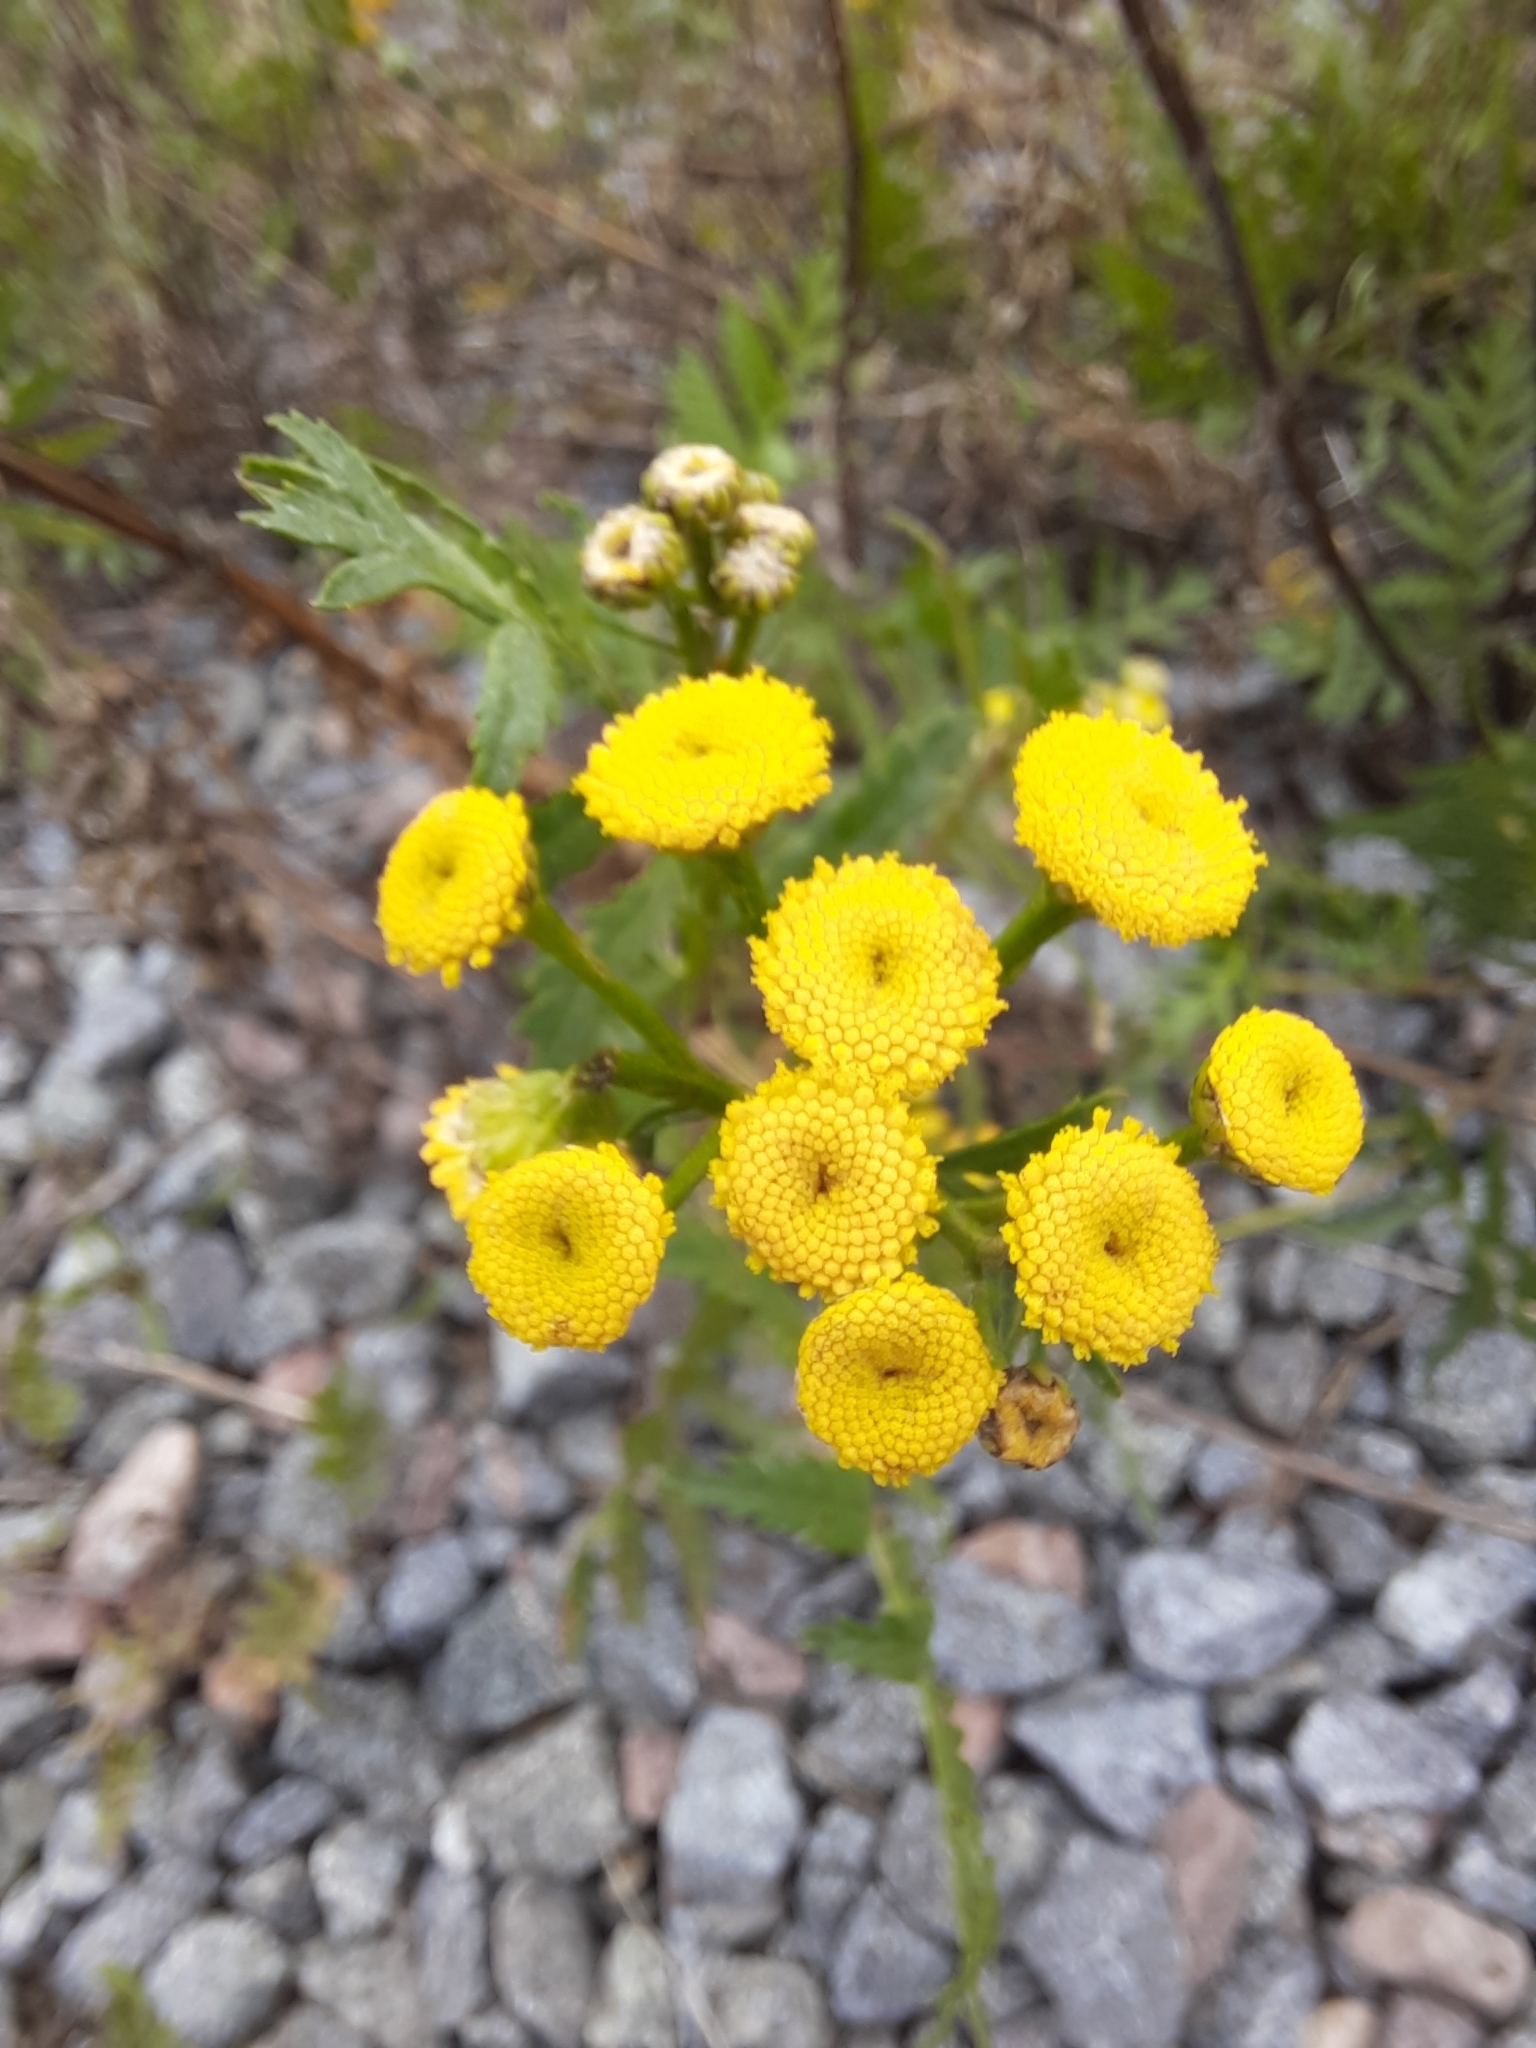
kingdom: Plantae
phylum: Tracheophyta
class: Magnoliopsida
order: Asterales
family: Asteraceae
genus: Tanacetum
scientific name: Tanacetum vulgare
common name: Common tansy
